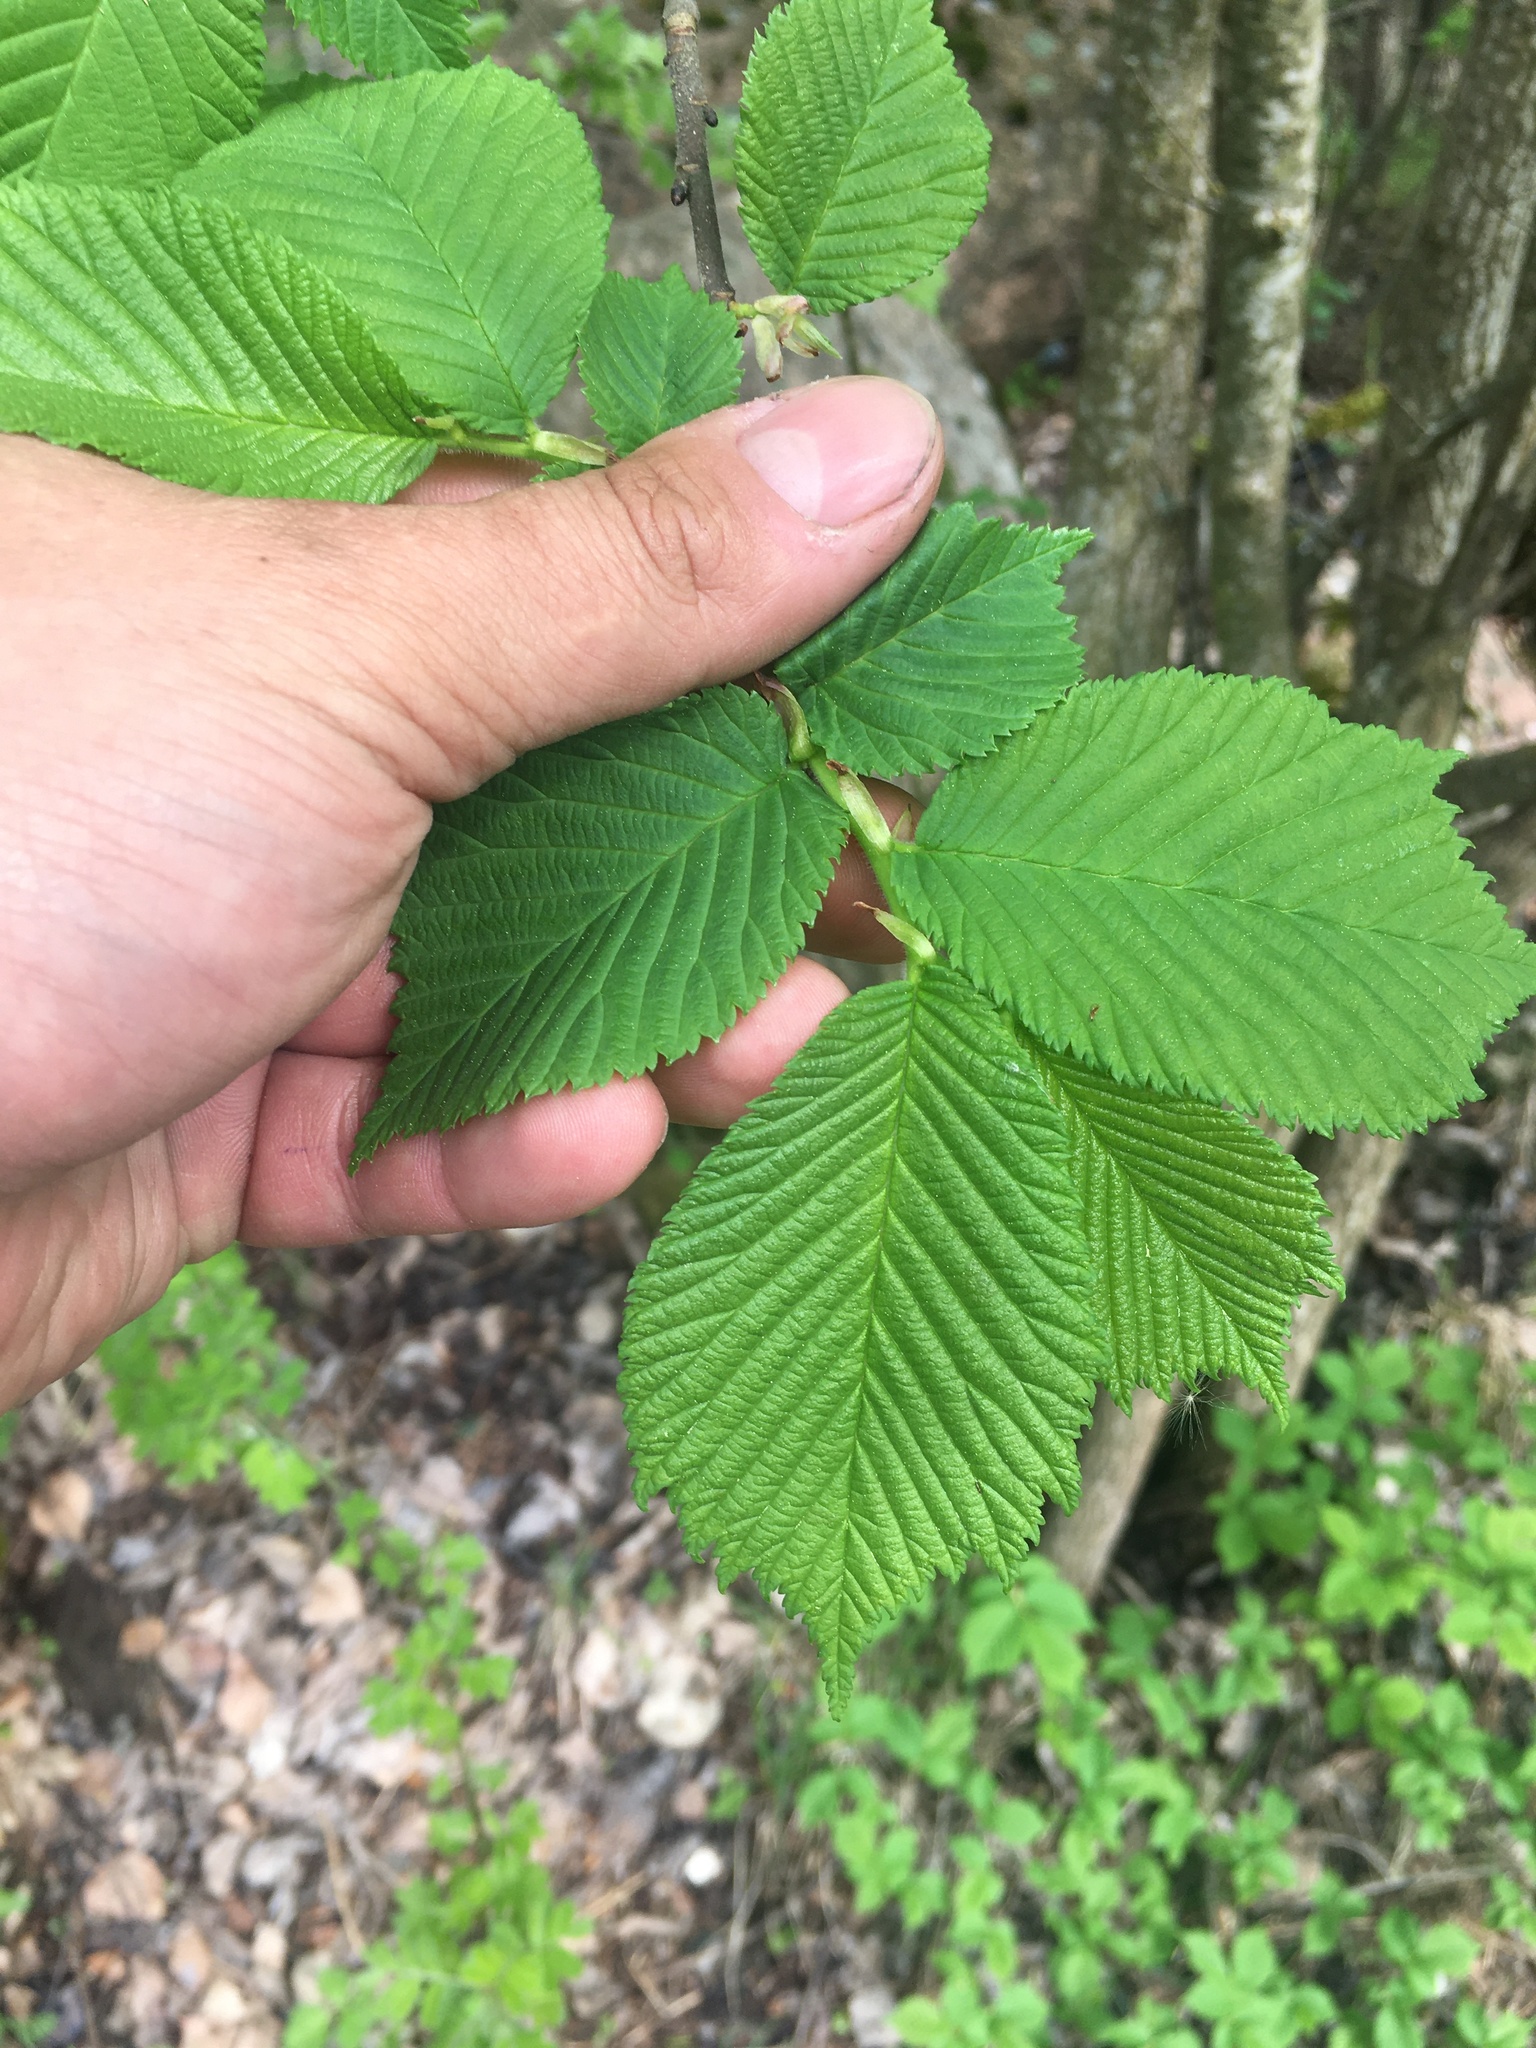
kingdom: Plantae
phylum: Tracheophyta
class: Magnoliopsida
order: Rosales
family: Ulmaceae
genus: Ulmus
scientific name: Ulmus glabra
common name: Wych elm
